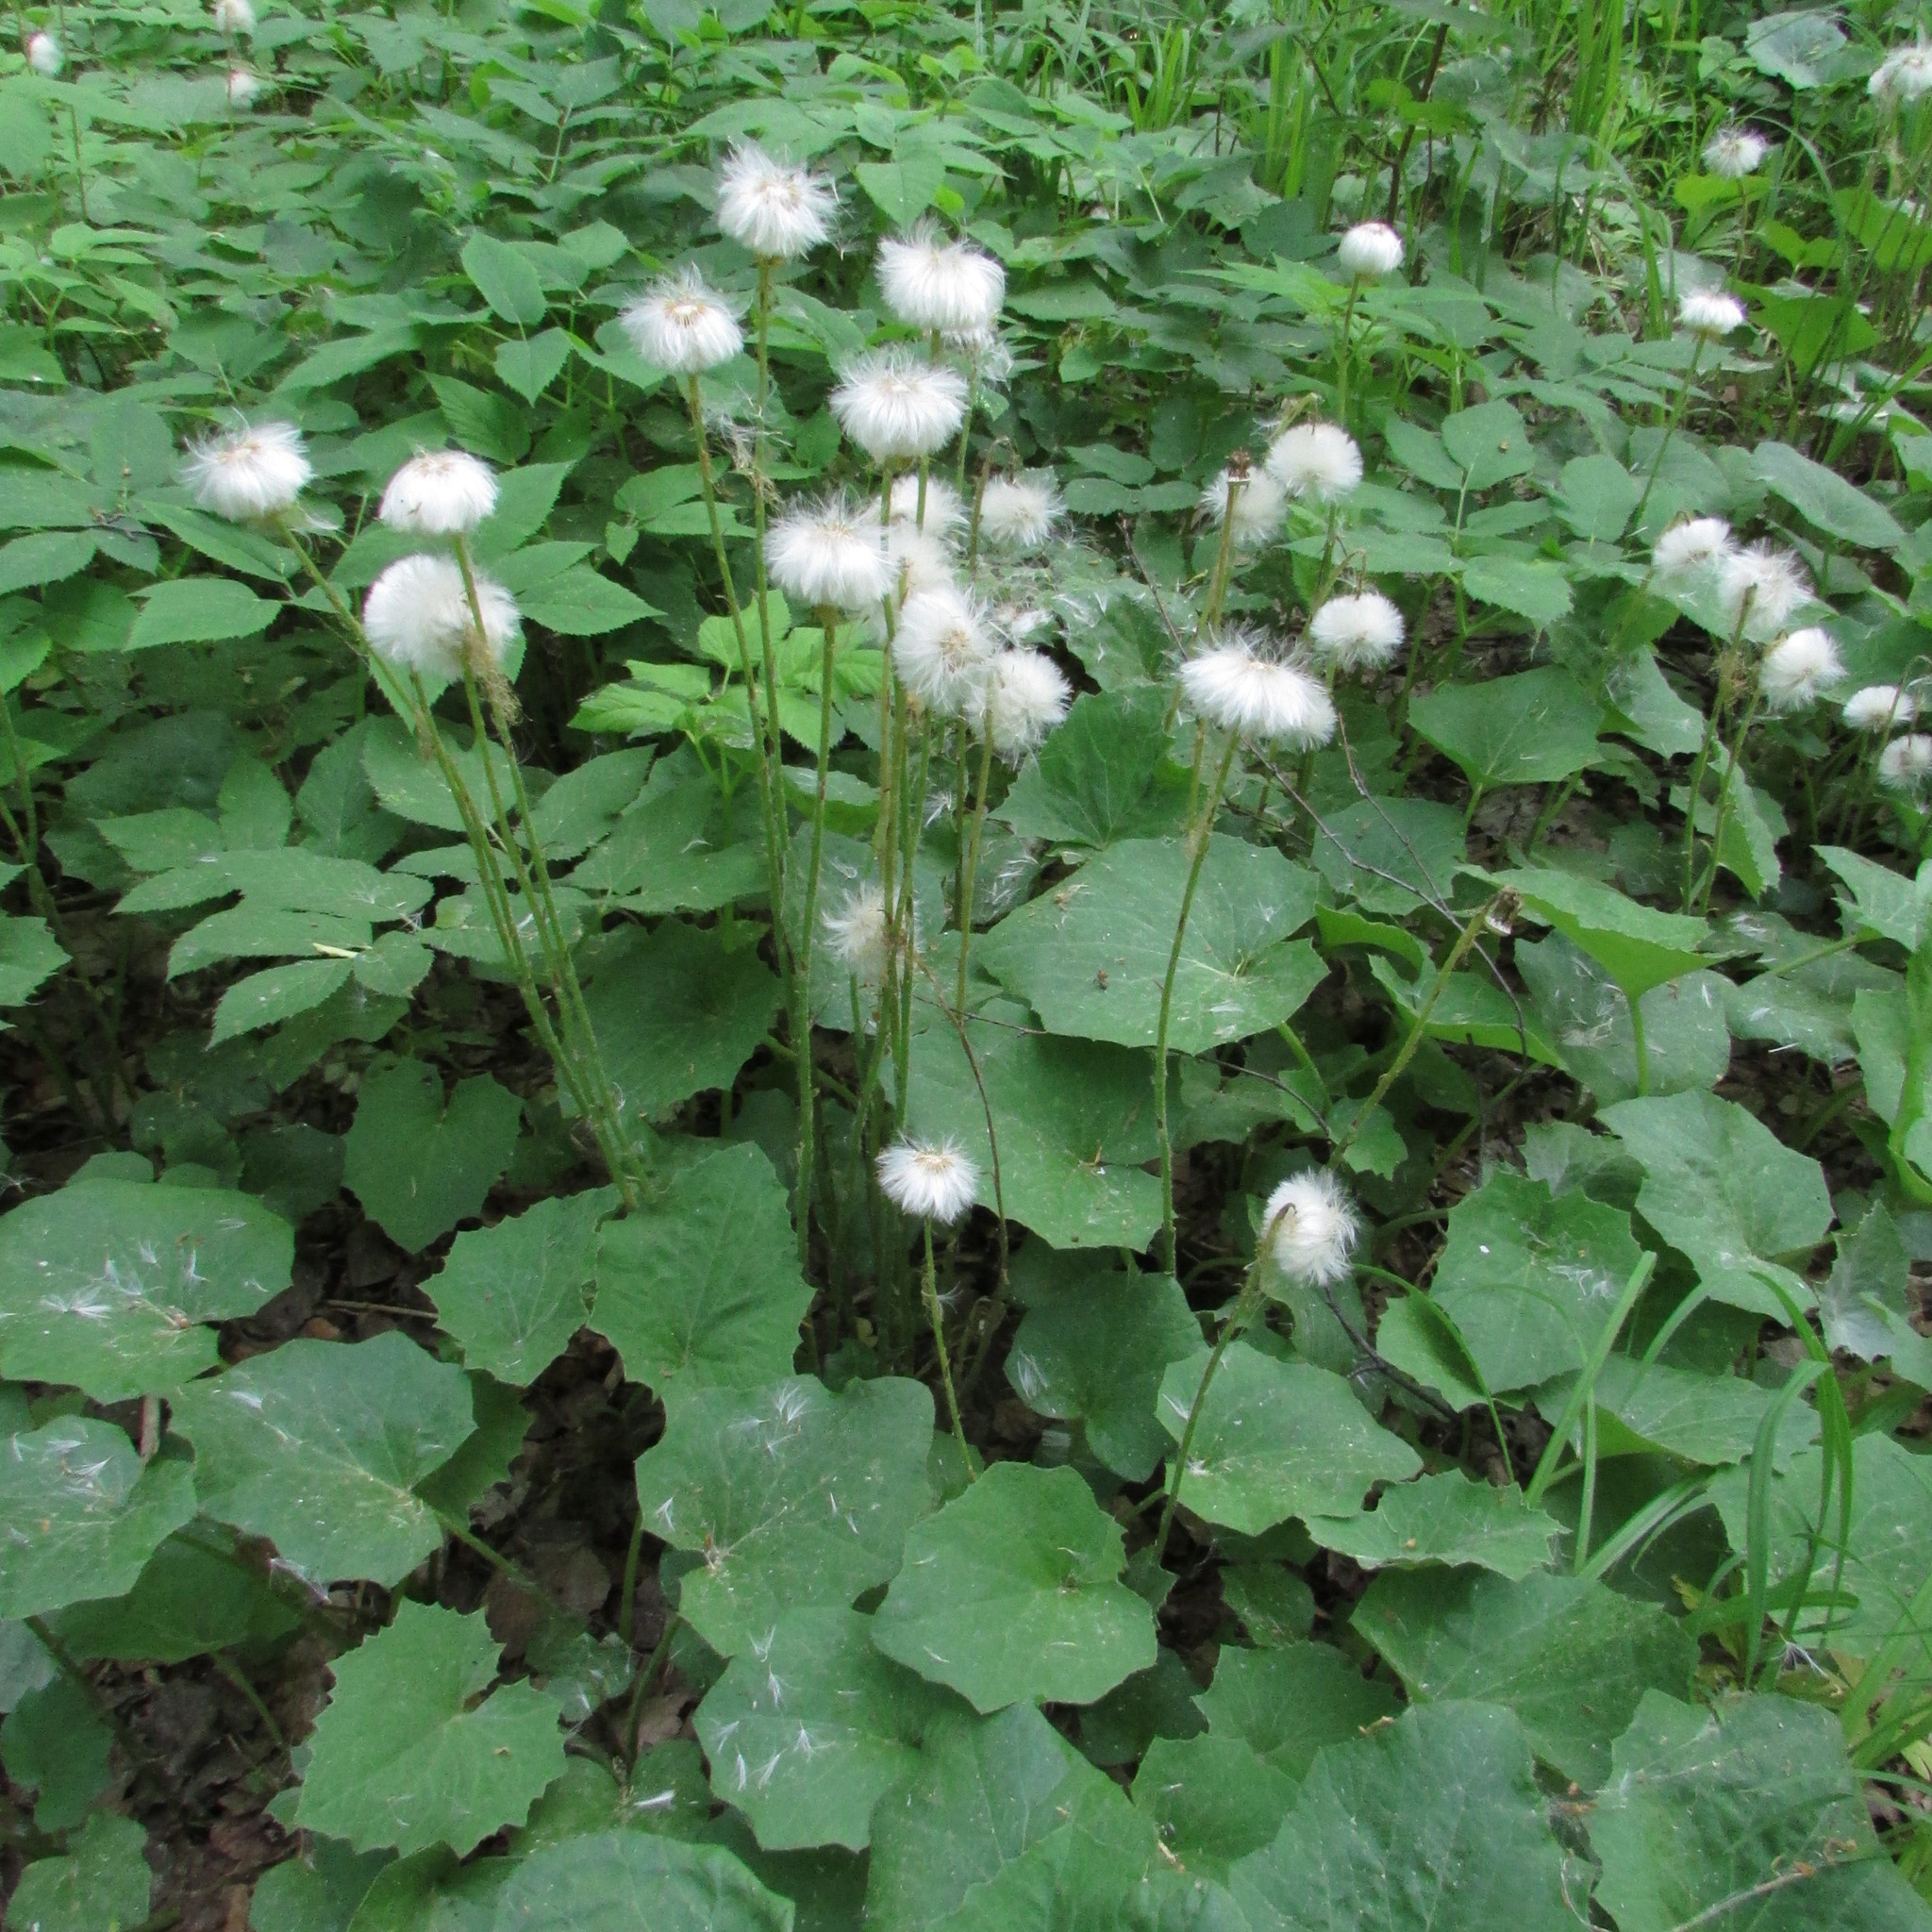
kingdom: Plantae
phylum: Tracheophyta
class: Magnoliopsida
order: Asterales
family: Asteraceae
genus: Tussilago
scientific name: Tussilago farfara
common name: Coltsfoot
